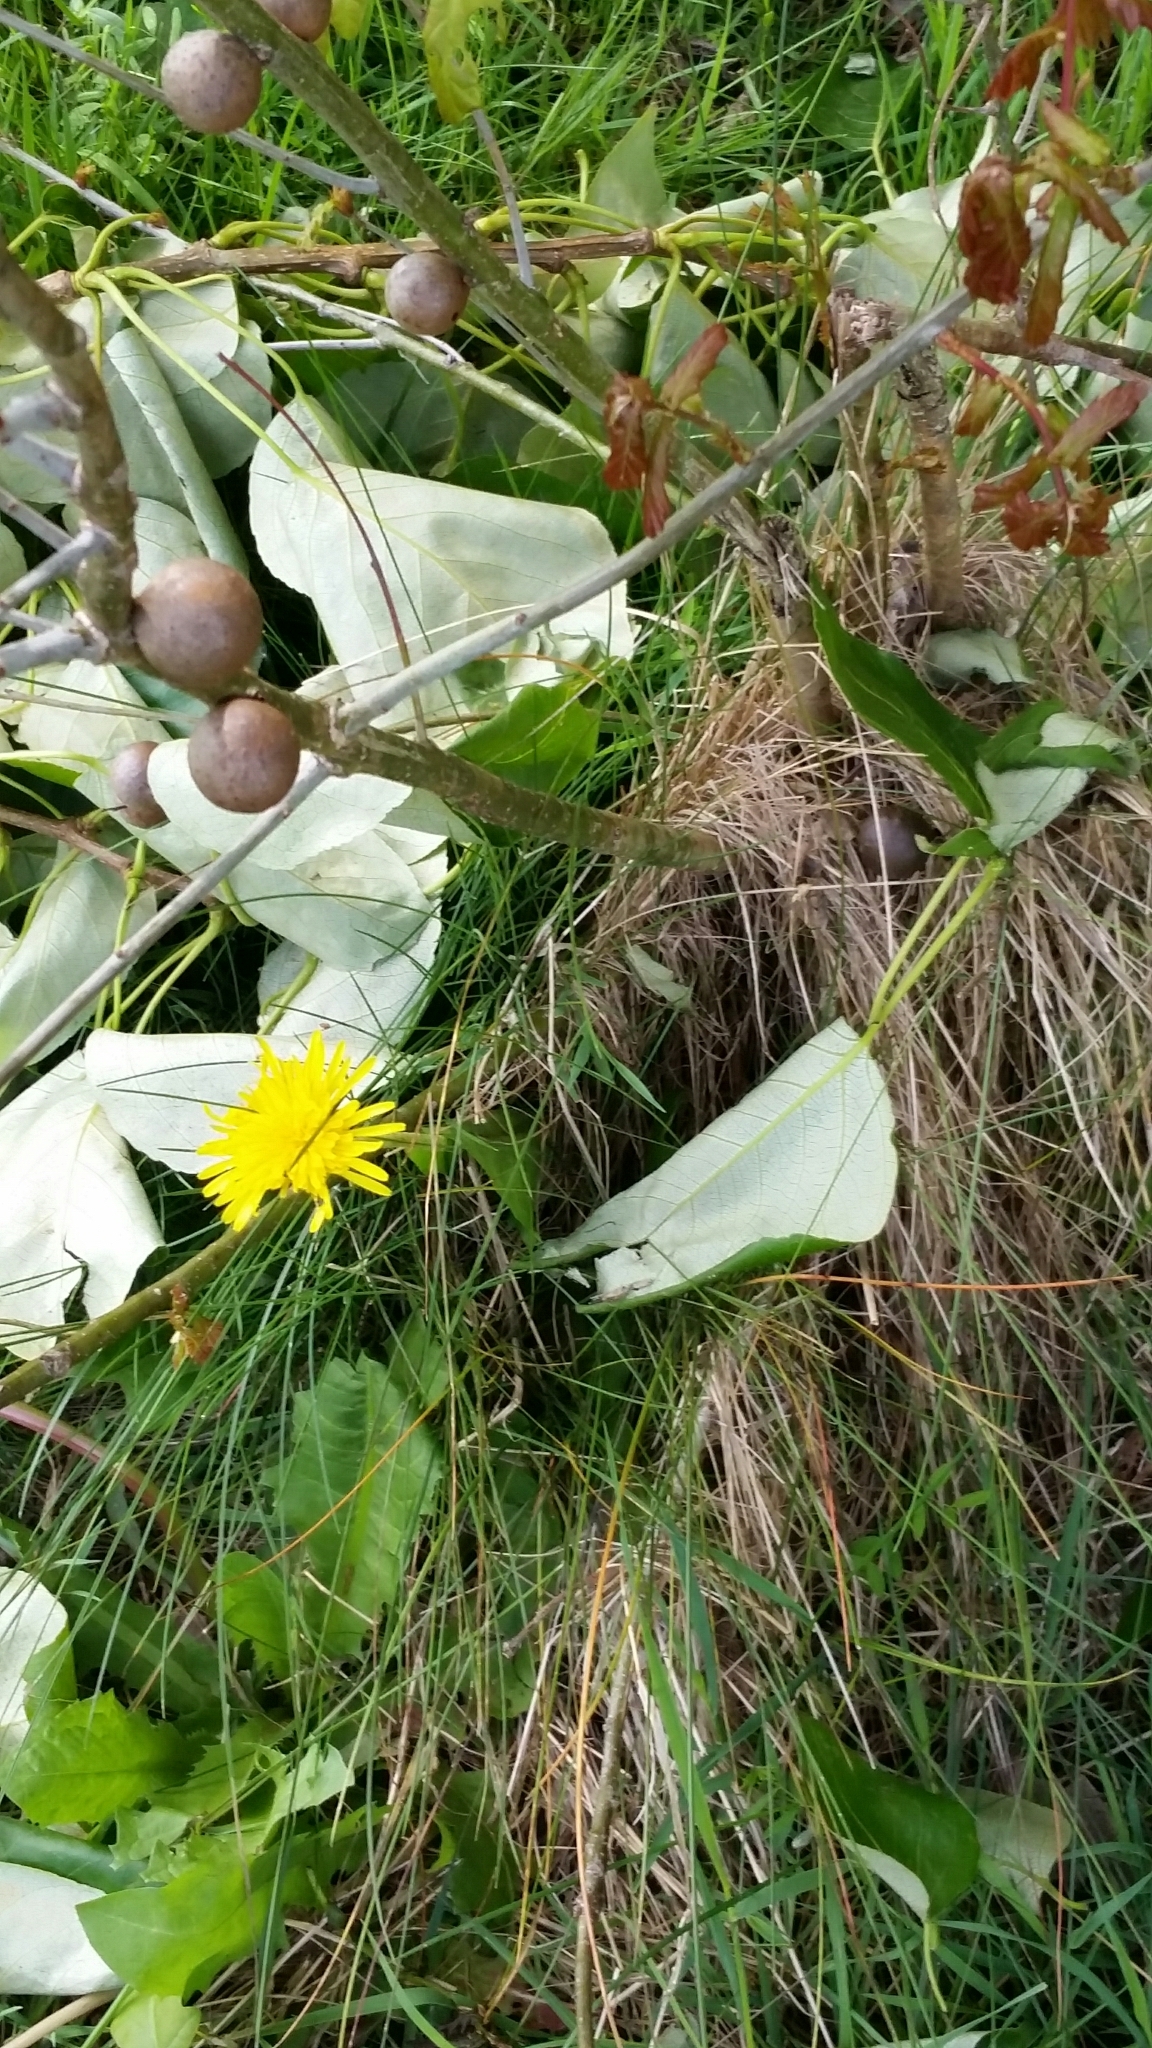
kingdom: Animalia
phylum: Arthropoda
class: Insecta
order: Hymenoptera
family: Cynipidae
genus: Andricus
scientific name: Andricus kollari
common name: Marble gall
